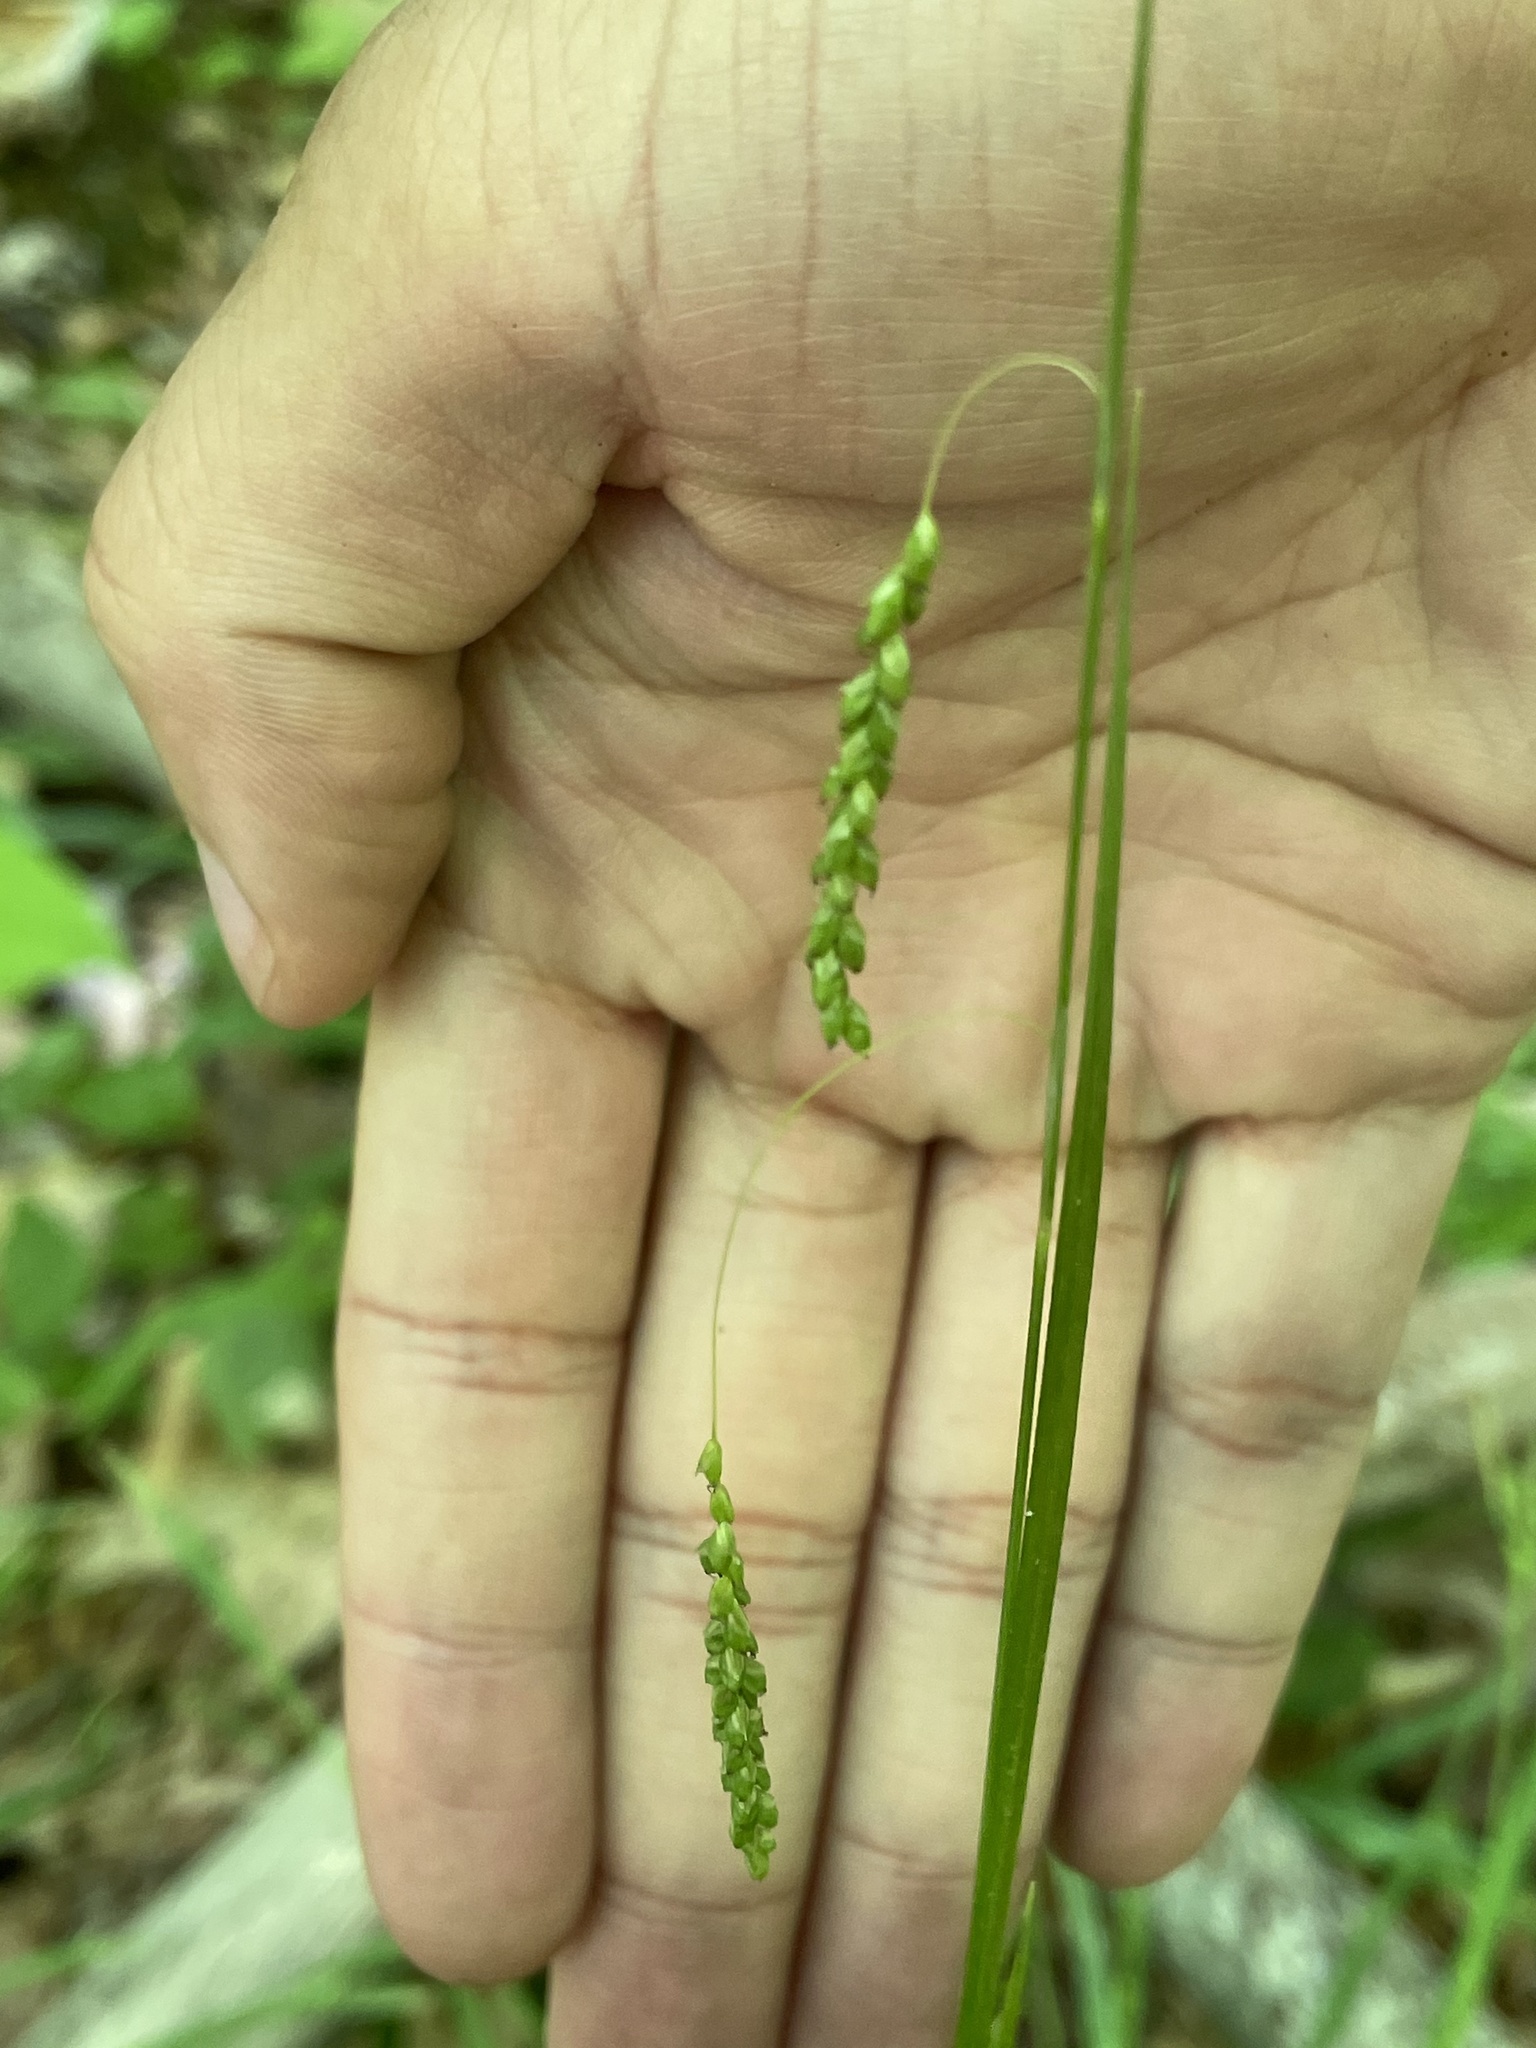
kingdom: Plantae
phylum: Tracheophyta
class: Liliopsida
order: Poales
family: Cyperaceae
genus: Carex
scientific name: Carex gracillima
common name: Graceful sedge
